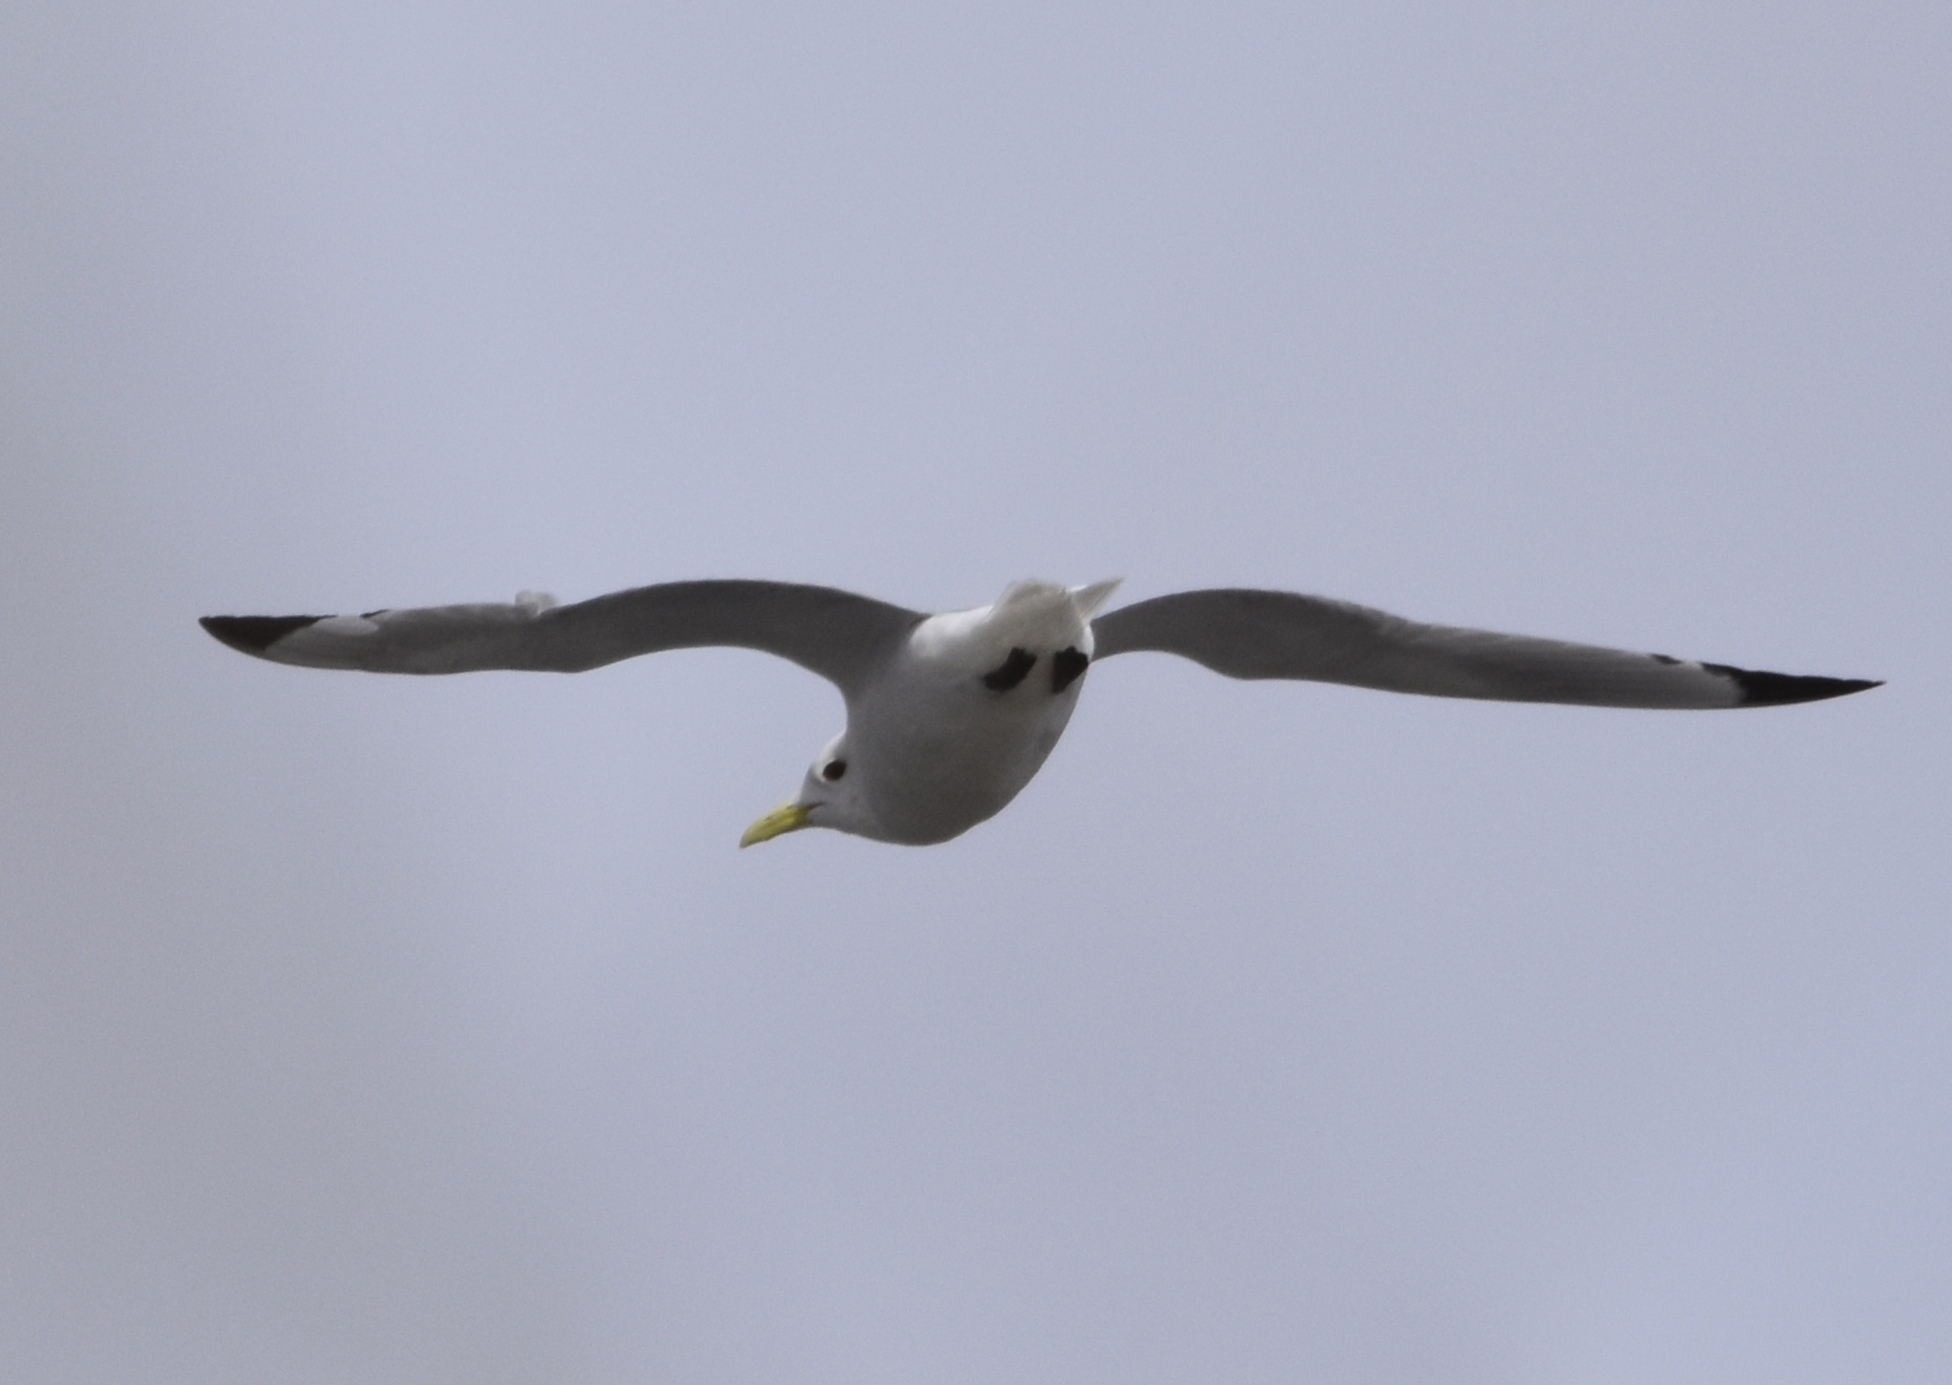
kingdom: Animalia
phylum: Chordata
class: Aves
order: Charadriiformes
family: Laridae
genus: Rissa
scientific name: Rissa tridactyla
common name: Black-legged kittiwake
